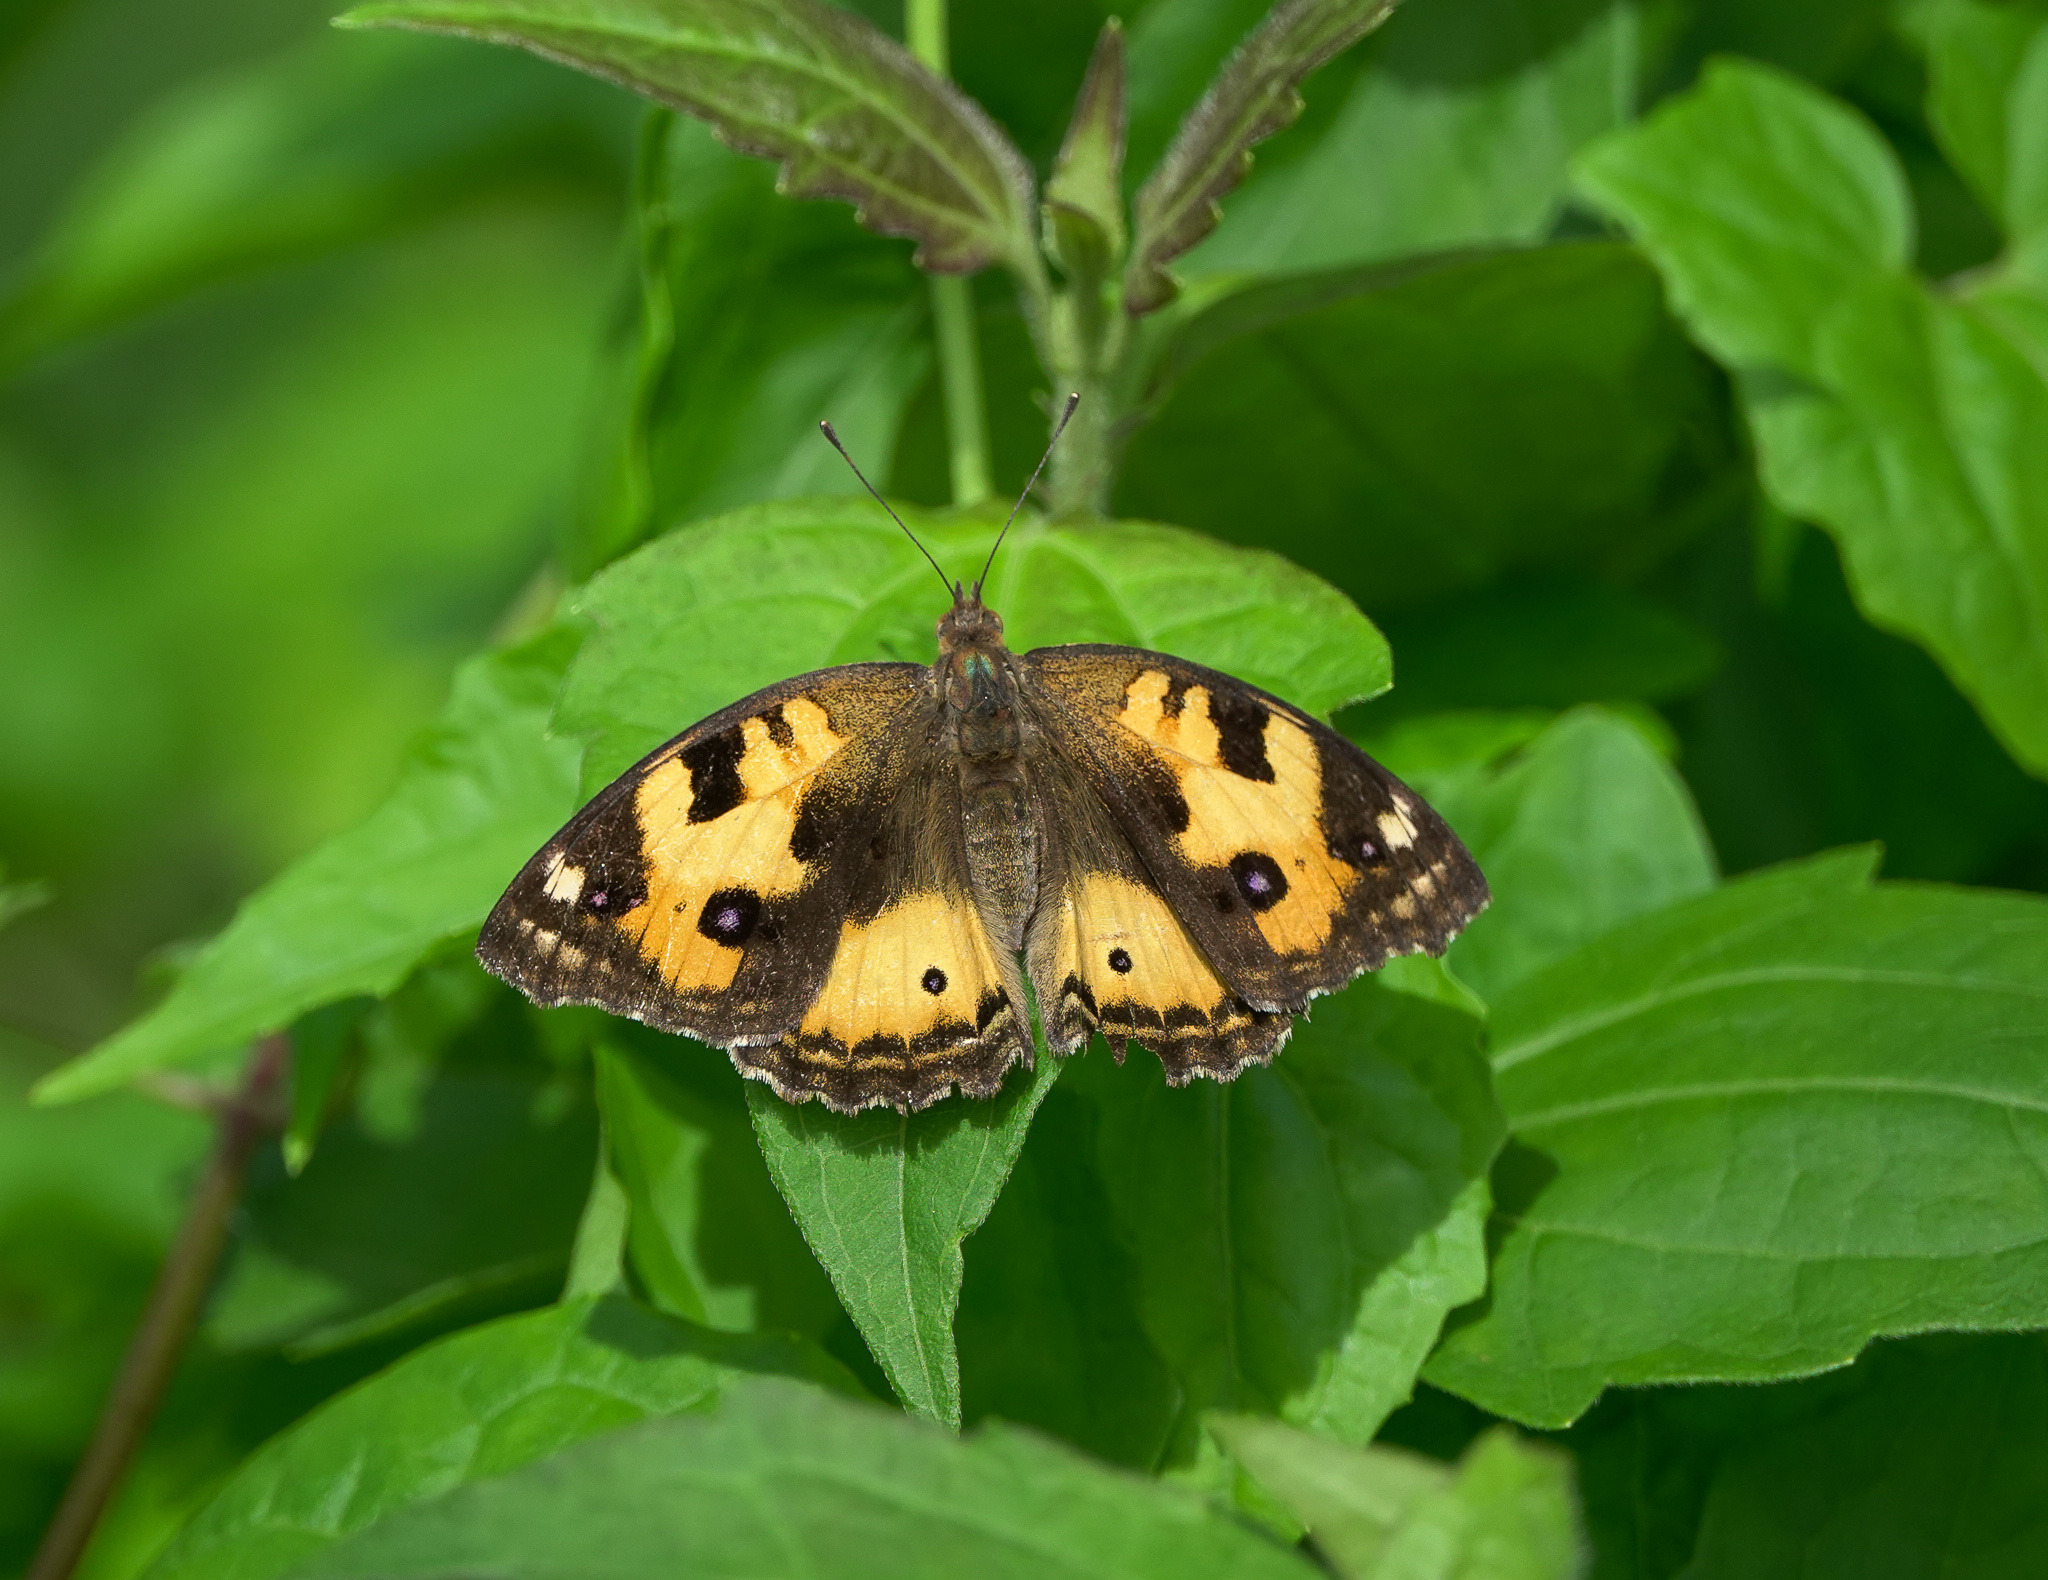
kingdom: Animalia
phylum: Arthropoda
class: Insecta
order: Lepidoptera
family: Nymphalidae
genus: Junonia
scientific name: Junonia hierta
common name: Yellow pansy
